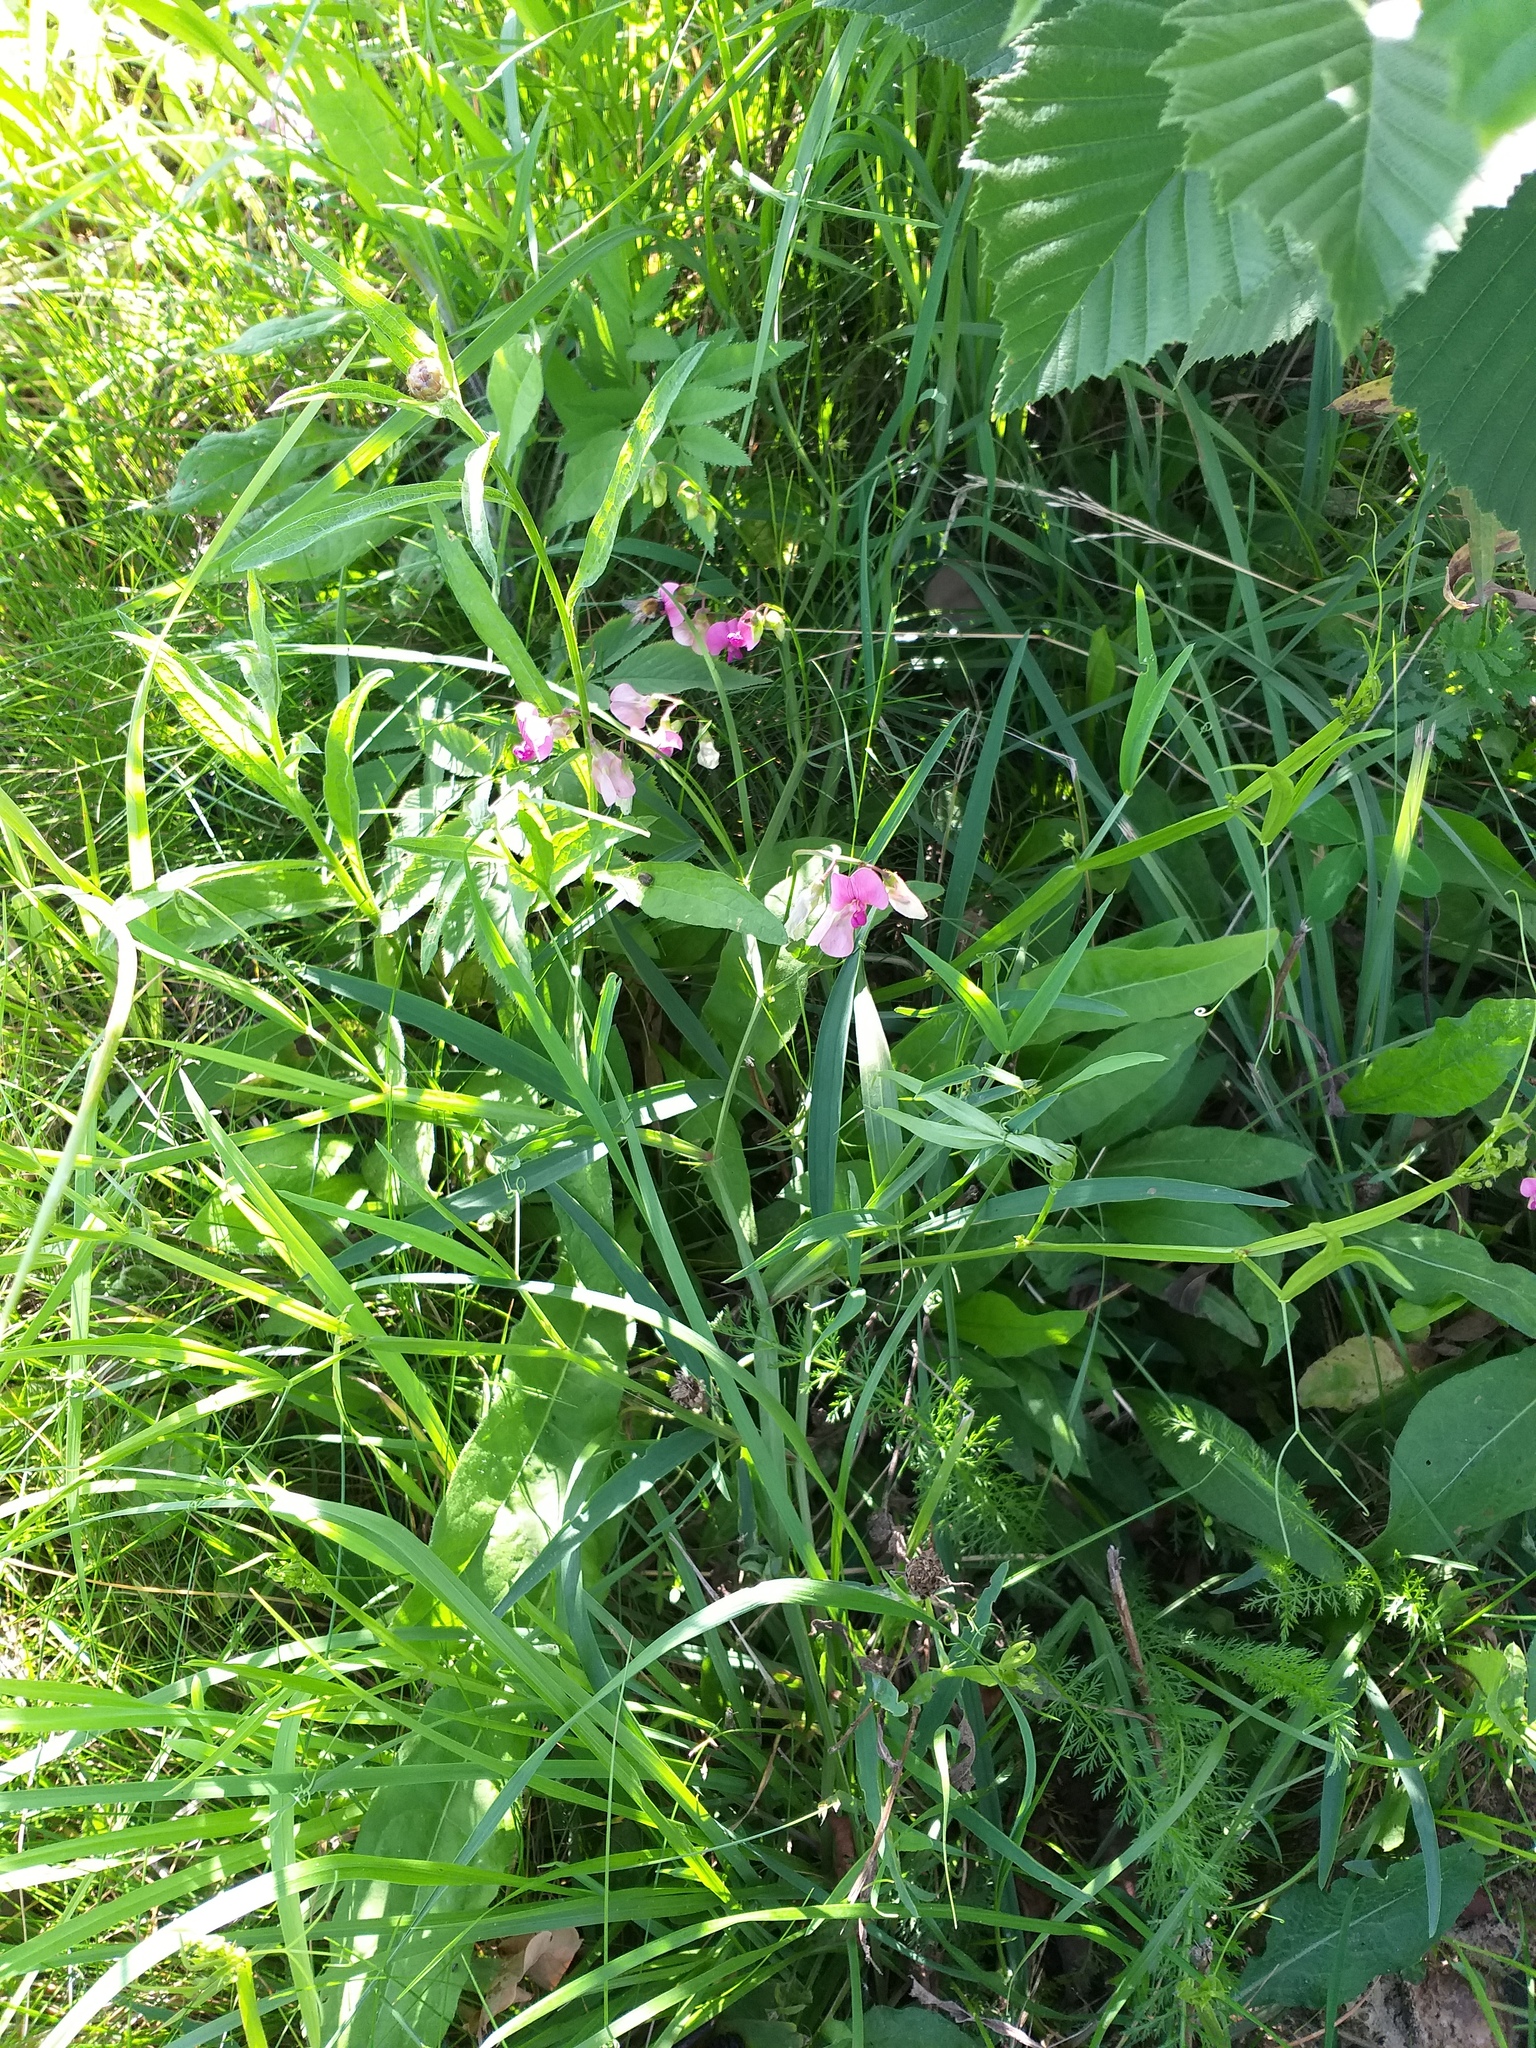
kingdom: Plantae
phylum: Tracheophyta
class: Magnoliopsida
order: Fabales
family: Fabaceae
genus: Lathyrus
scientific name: Lathyrus sylvestris
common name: Flat pea
